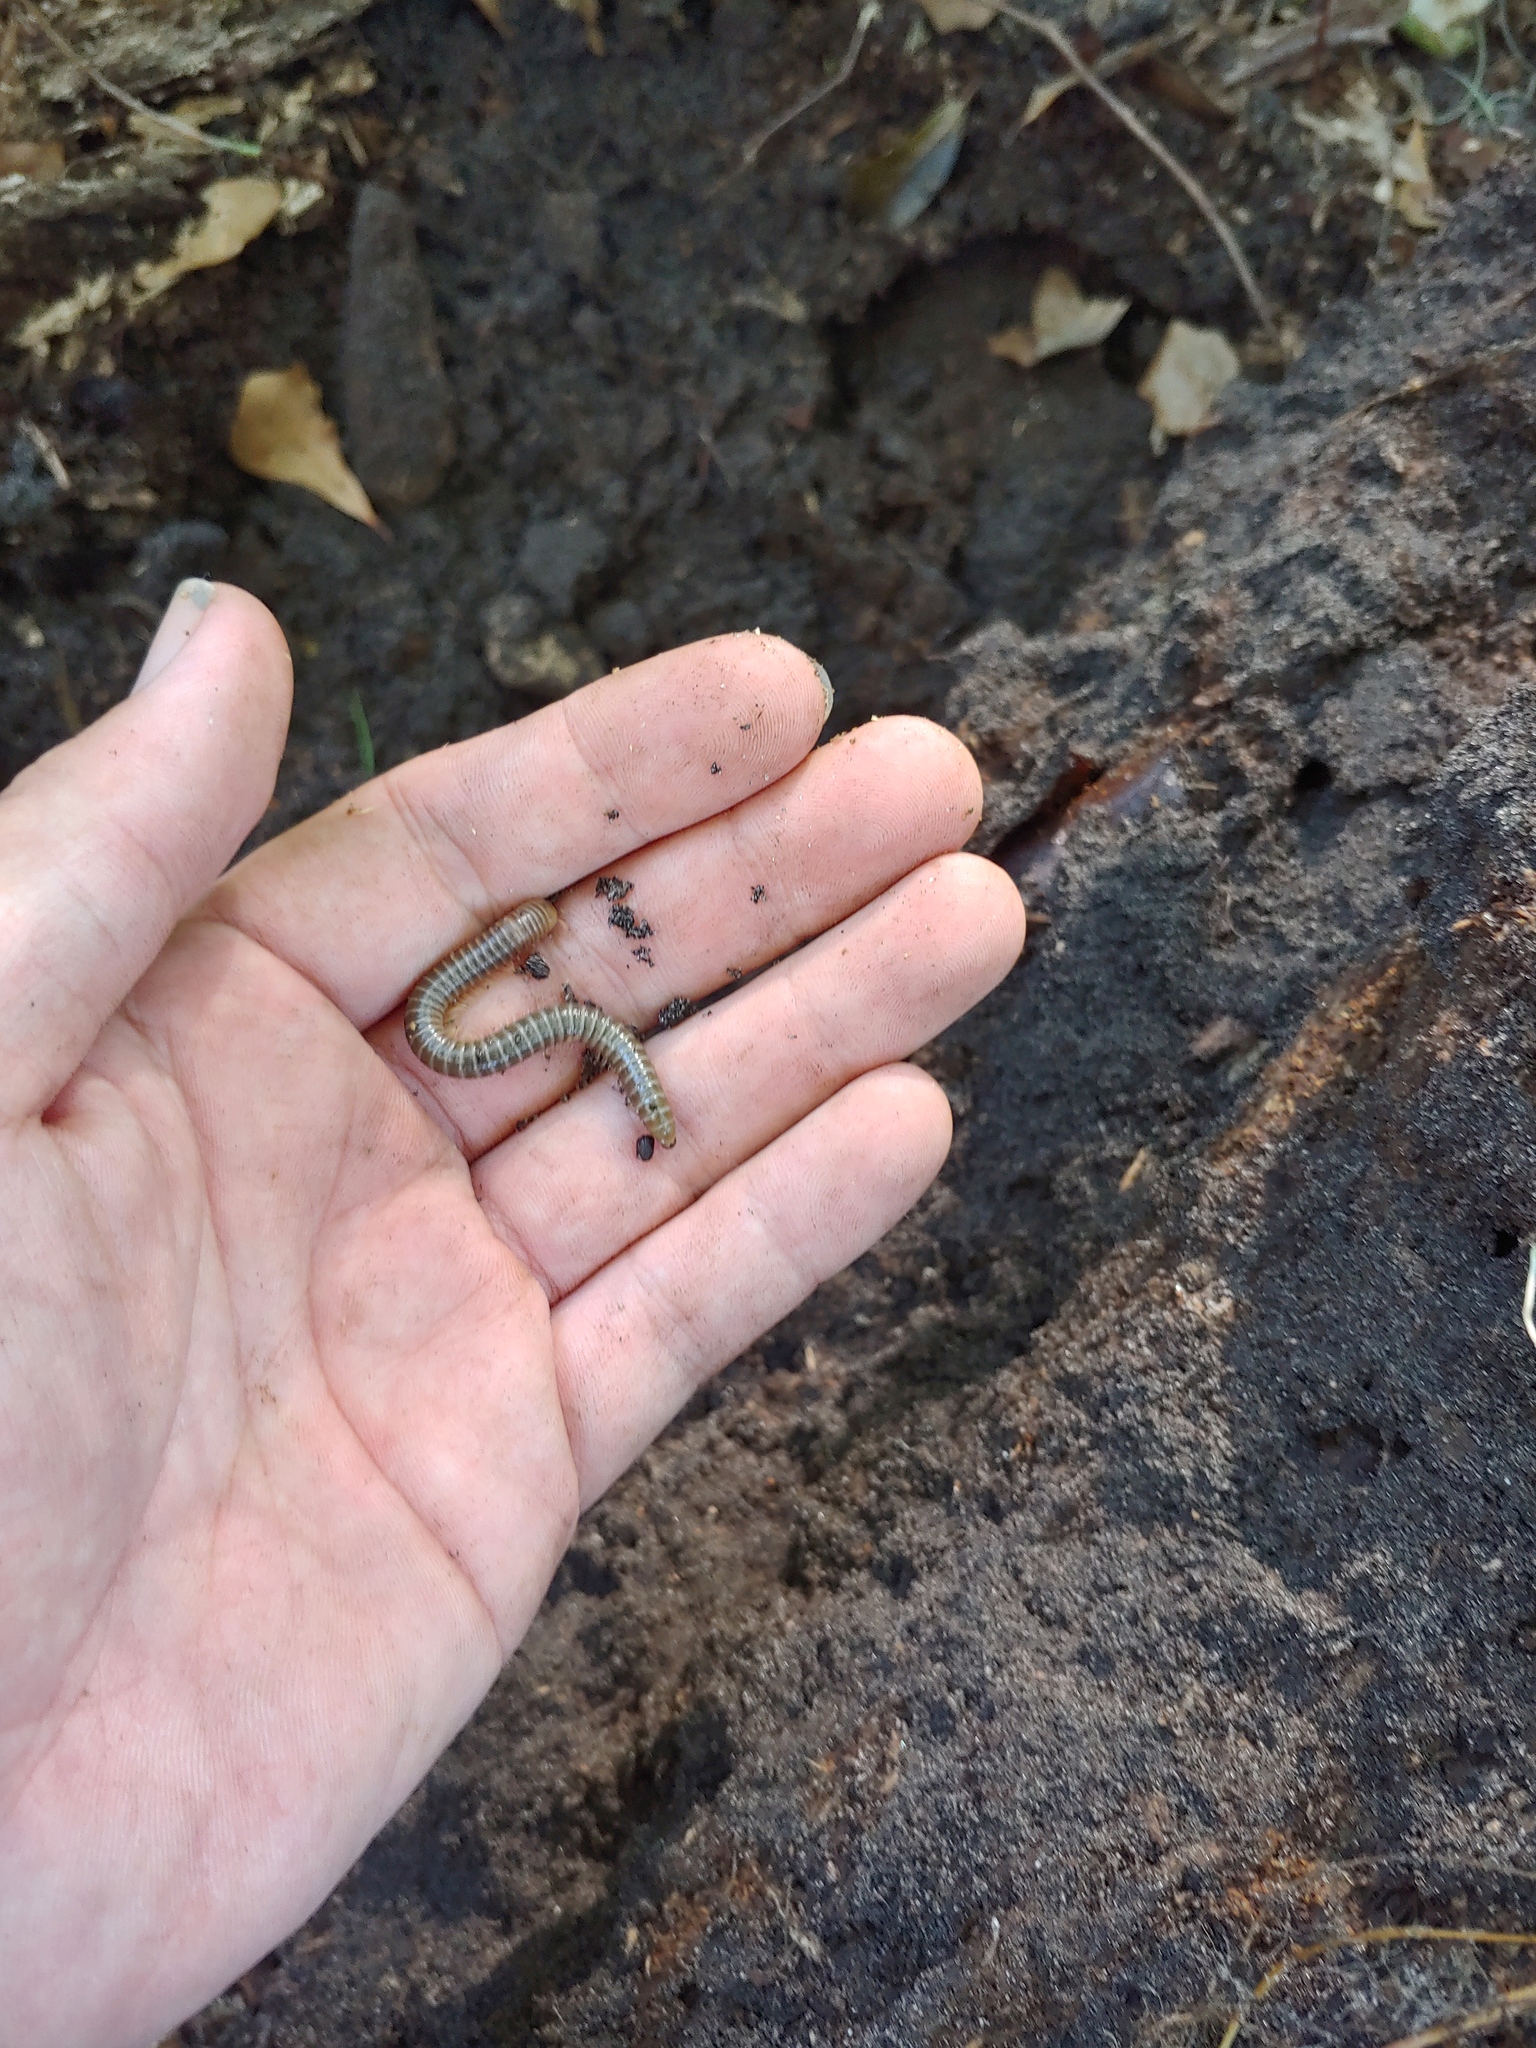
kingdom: Animalia
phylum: Arthropoda
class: Diplopoda
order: Spirobolida
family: Spirobolidae
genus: Narceus
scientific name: Narceus woodruffi
